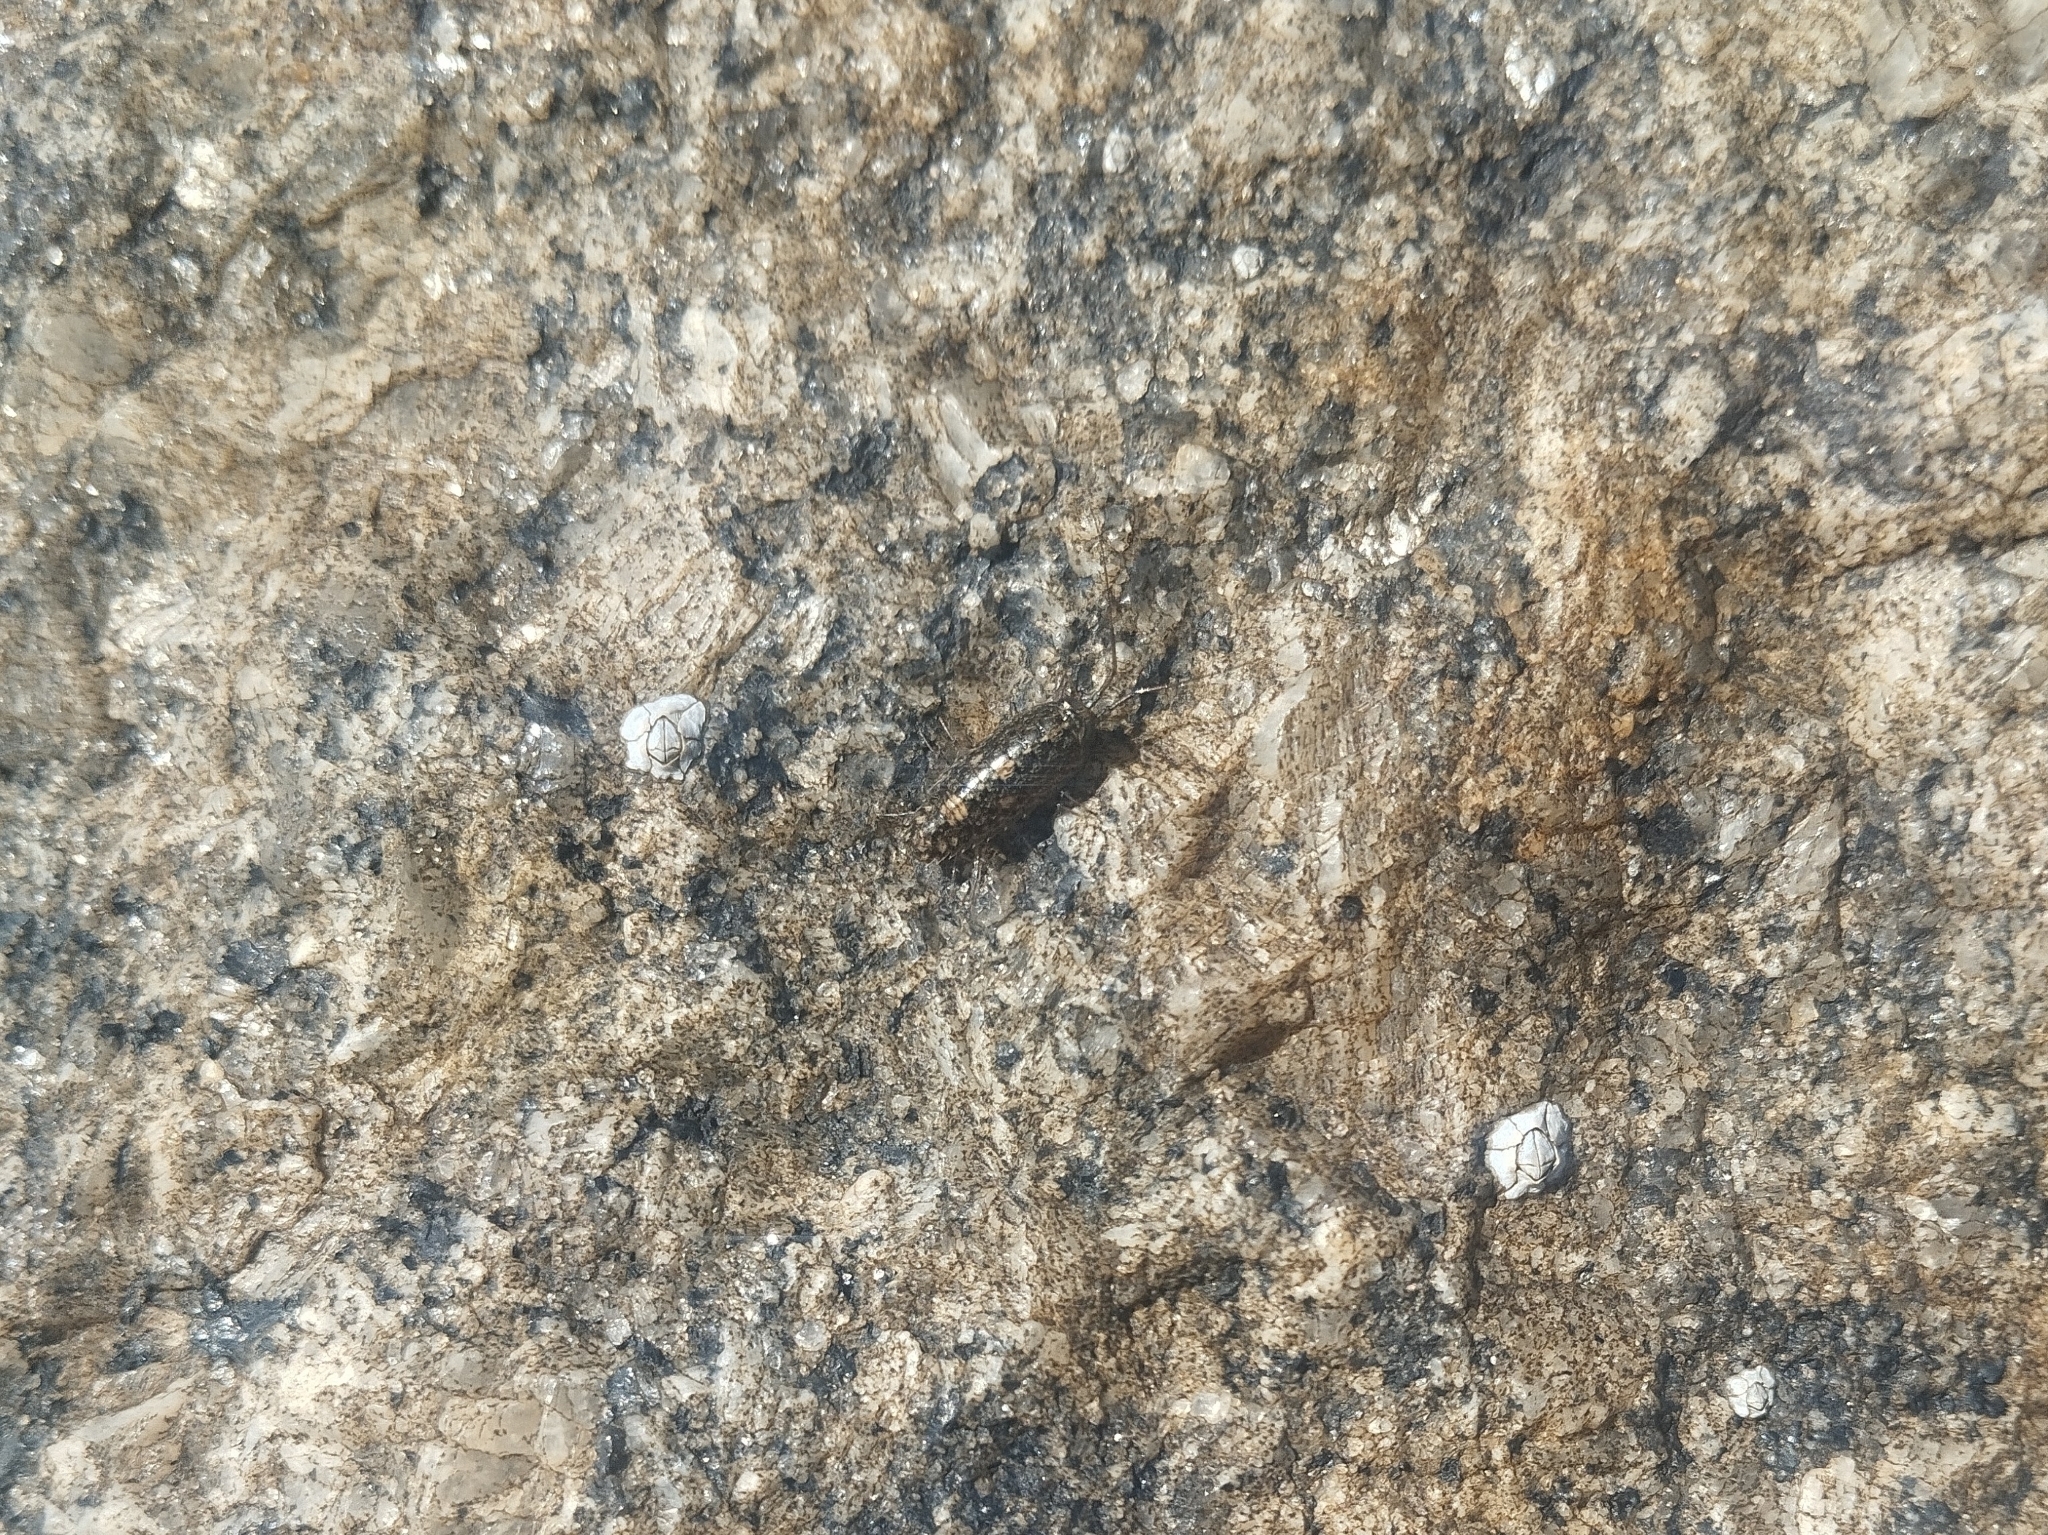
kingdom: Animalia
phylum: Arthropoda
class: Malacostraca
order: Isopoda
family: Ligiidae
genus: Ligia
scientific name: Ligia exotica
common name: Wharf roach
